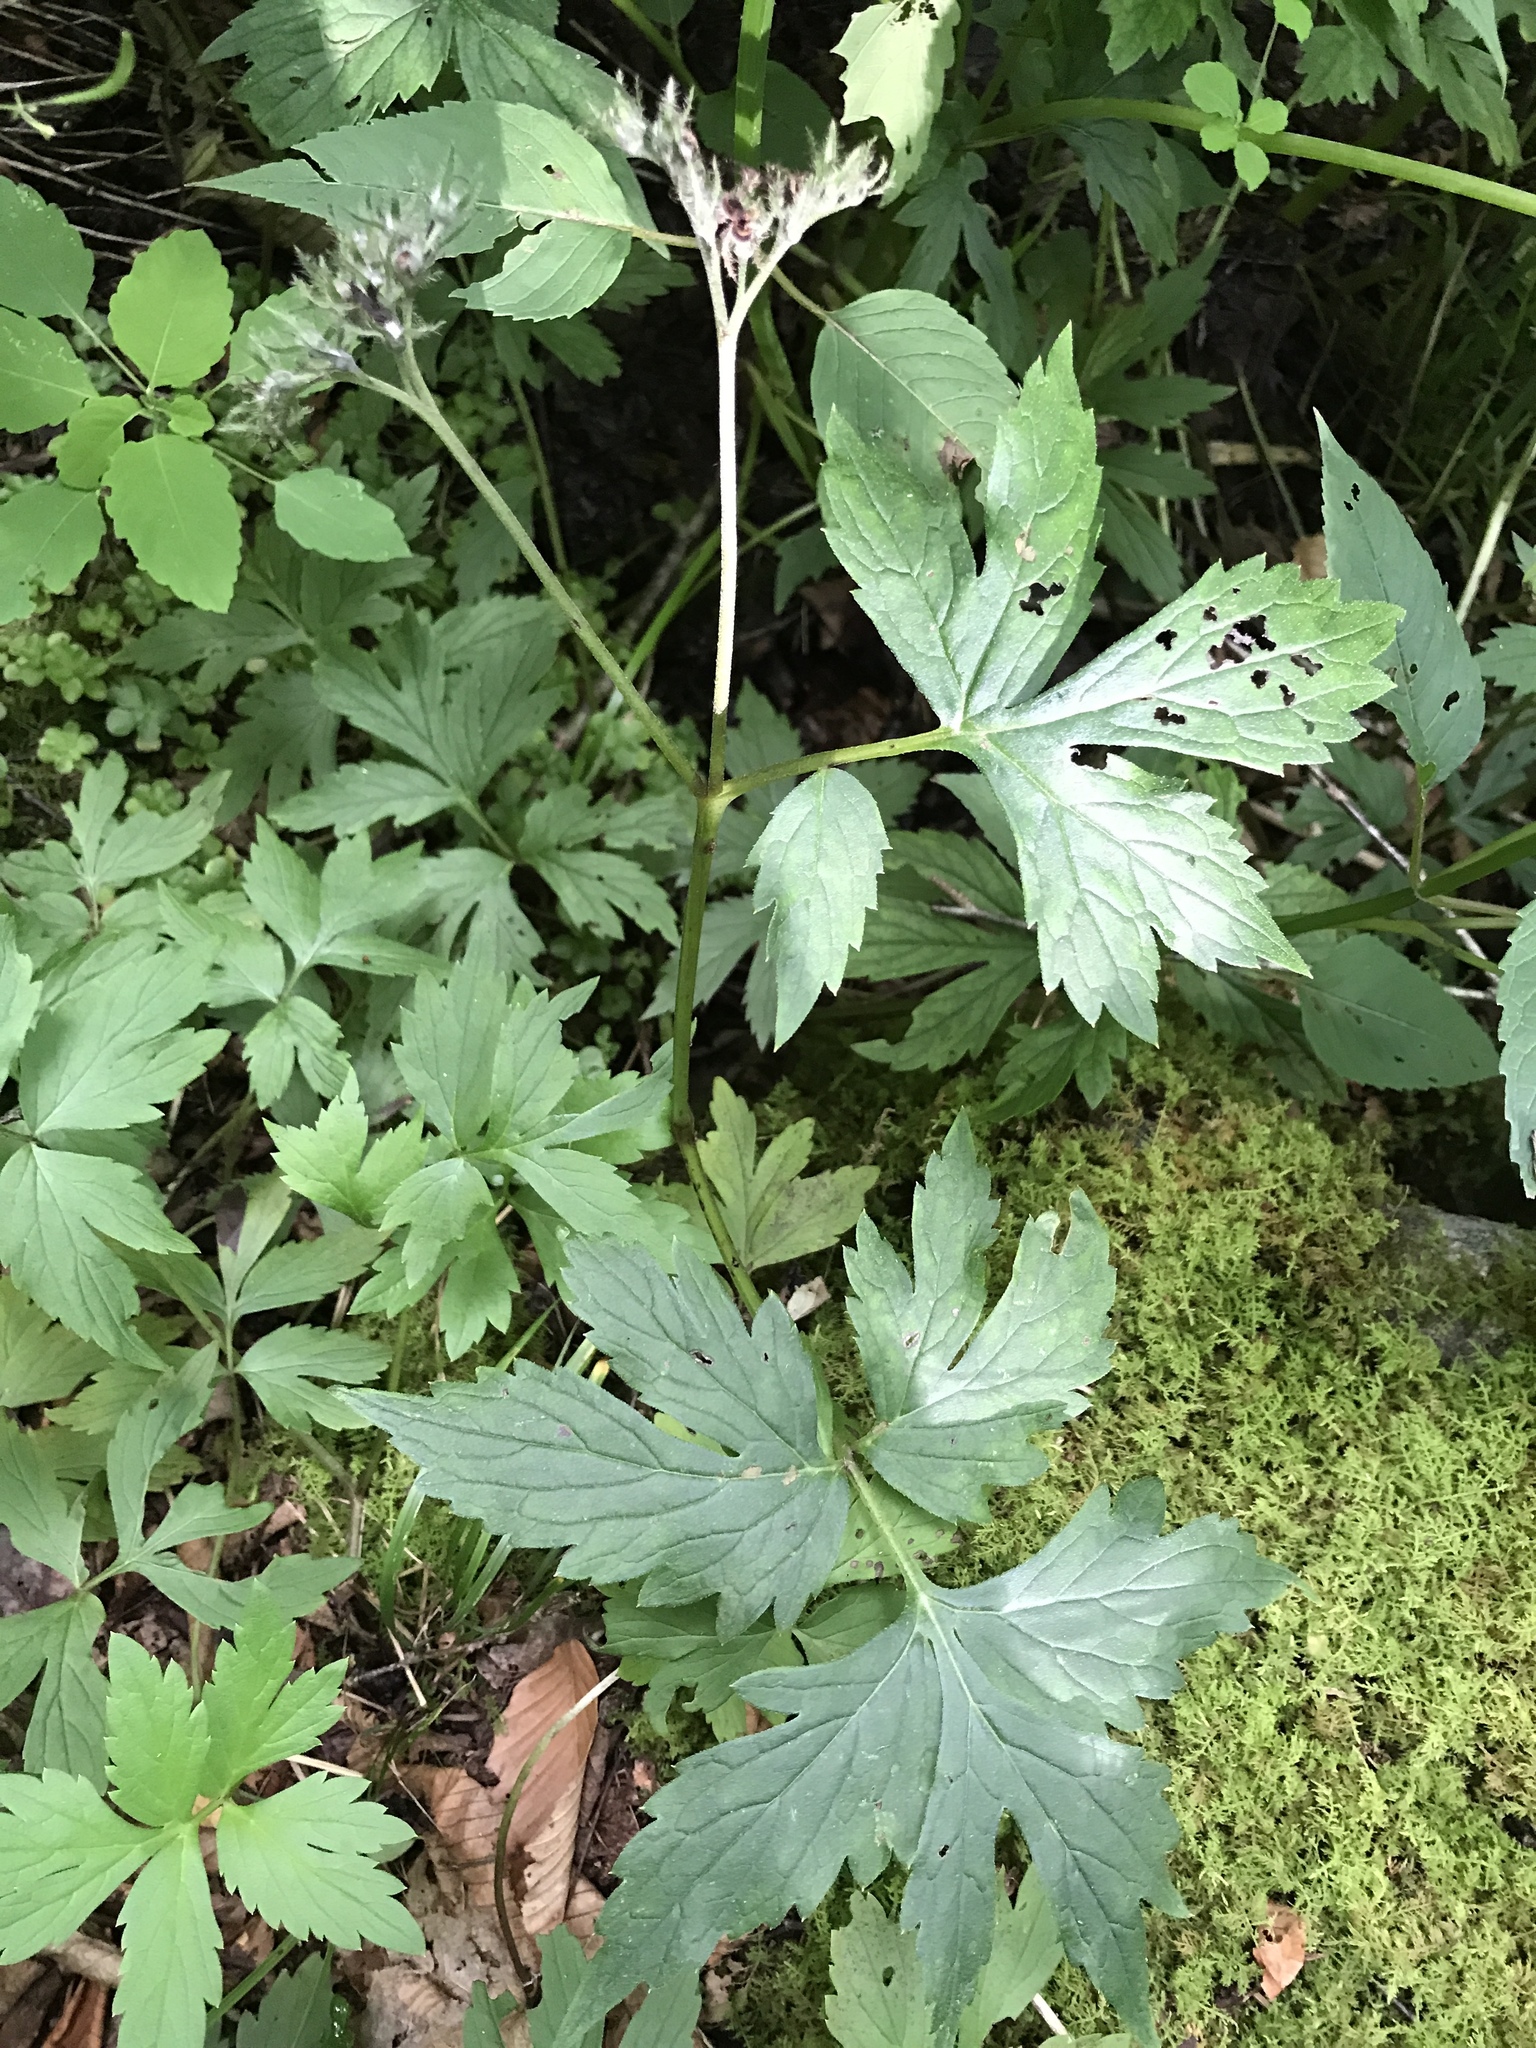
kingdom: Plantae
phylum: Tracheophyta
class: Magnoliopsida
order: Boraginales
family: Hydrophyllaceae
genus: Hydrophyllum
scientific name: Hydrophyllum virginianum
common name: Virginia waterleaf
